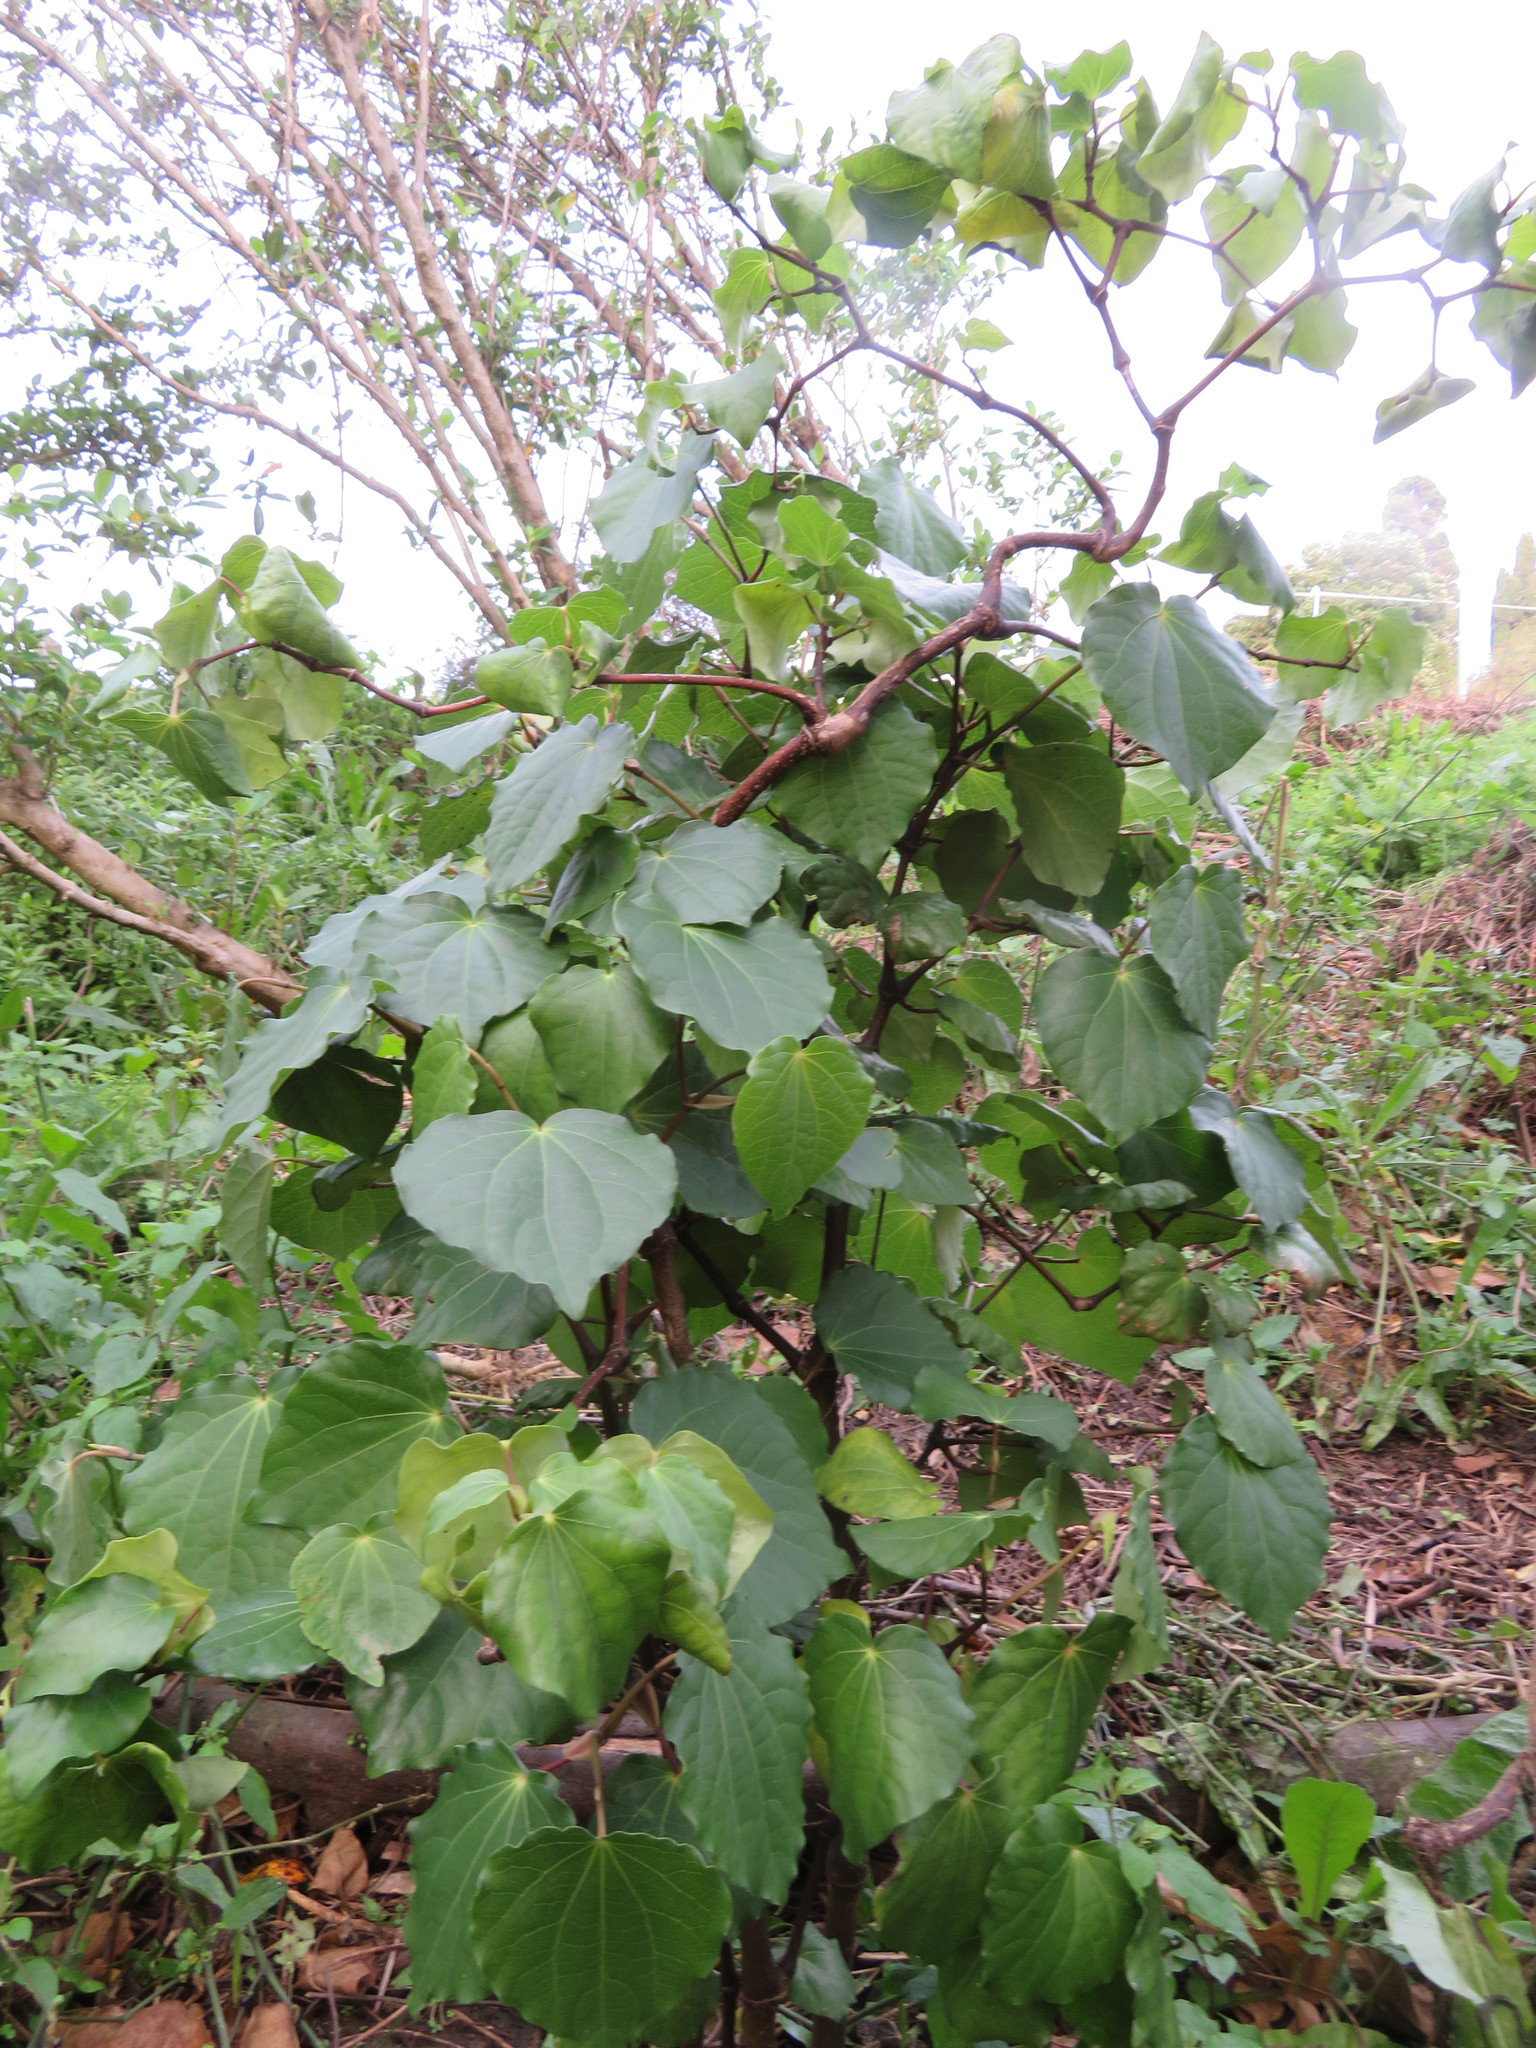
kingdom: Plantae
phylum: Tracheophyta
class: Magnoliopsida
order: Piperales
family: Piperaceae
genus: Macropiper
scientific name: Macropiper excelsum
